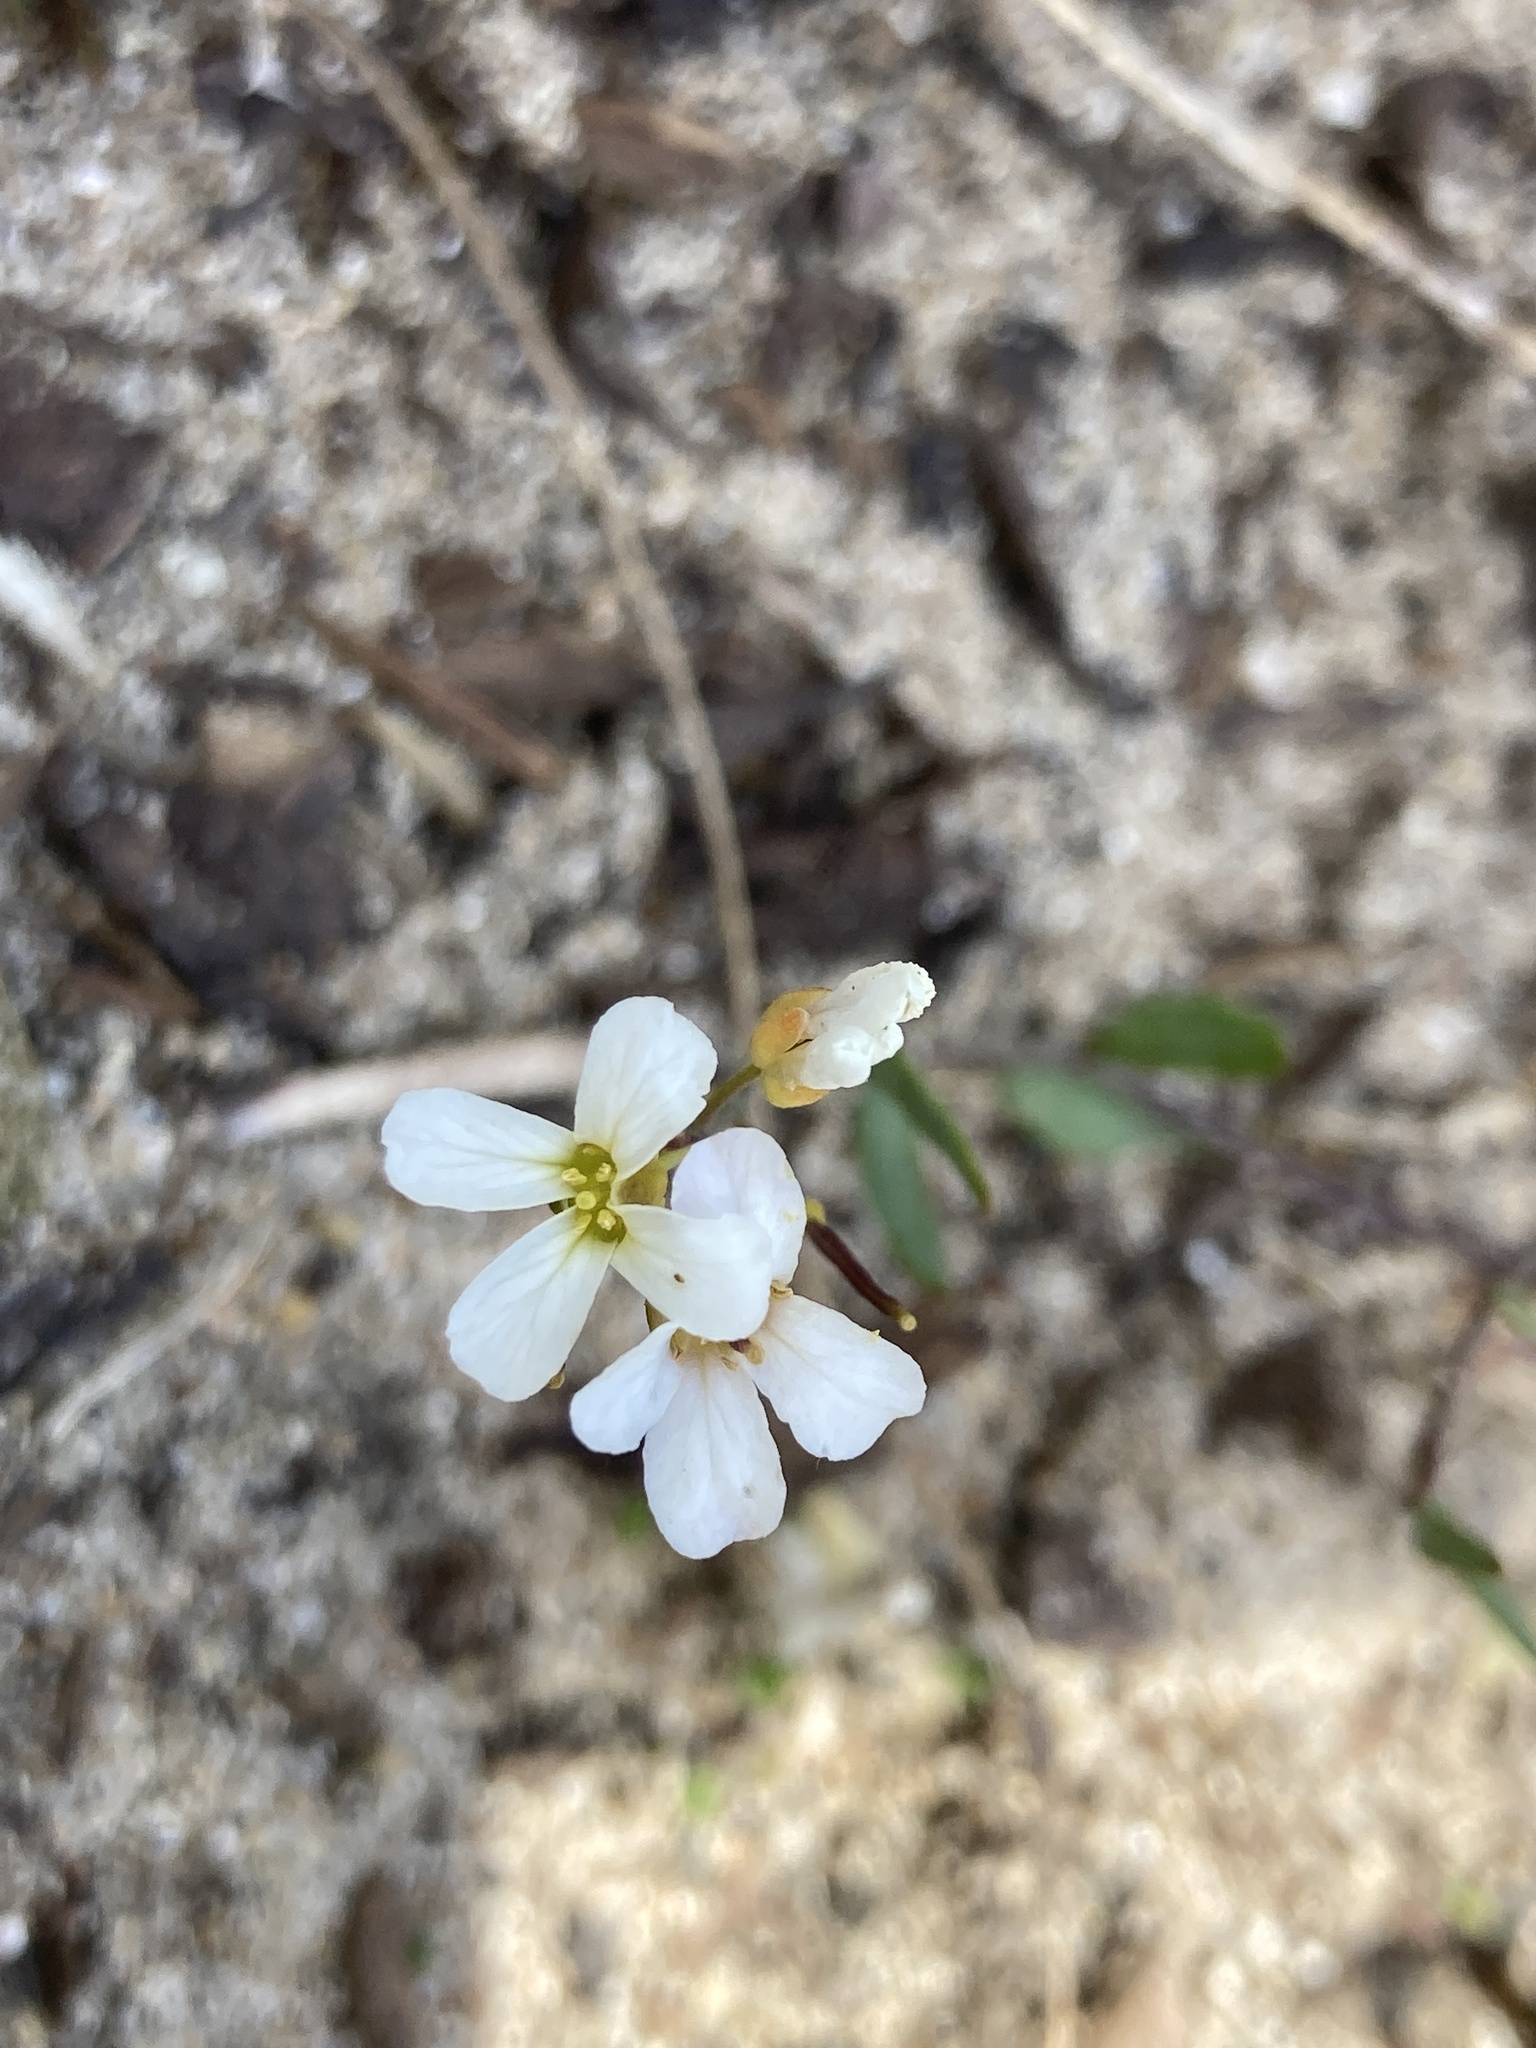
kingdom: Plantae
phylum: Tracheophyta
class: Magnoliopsida
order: Brassicales
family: Brassicaceae
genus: Arabidopsis
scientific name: Arabidopsis lyrata
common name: Lyrate rockcress
